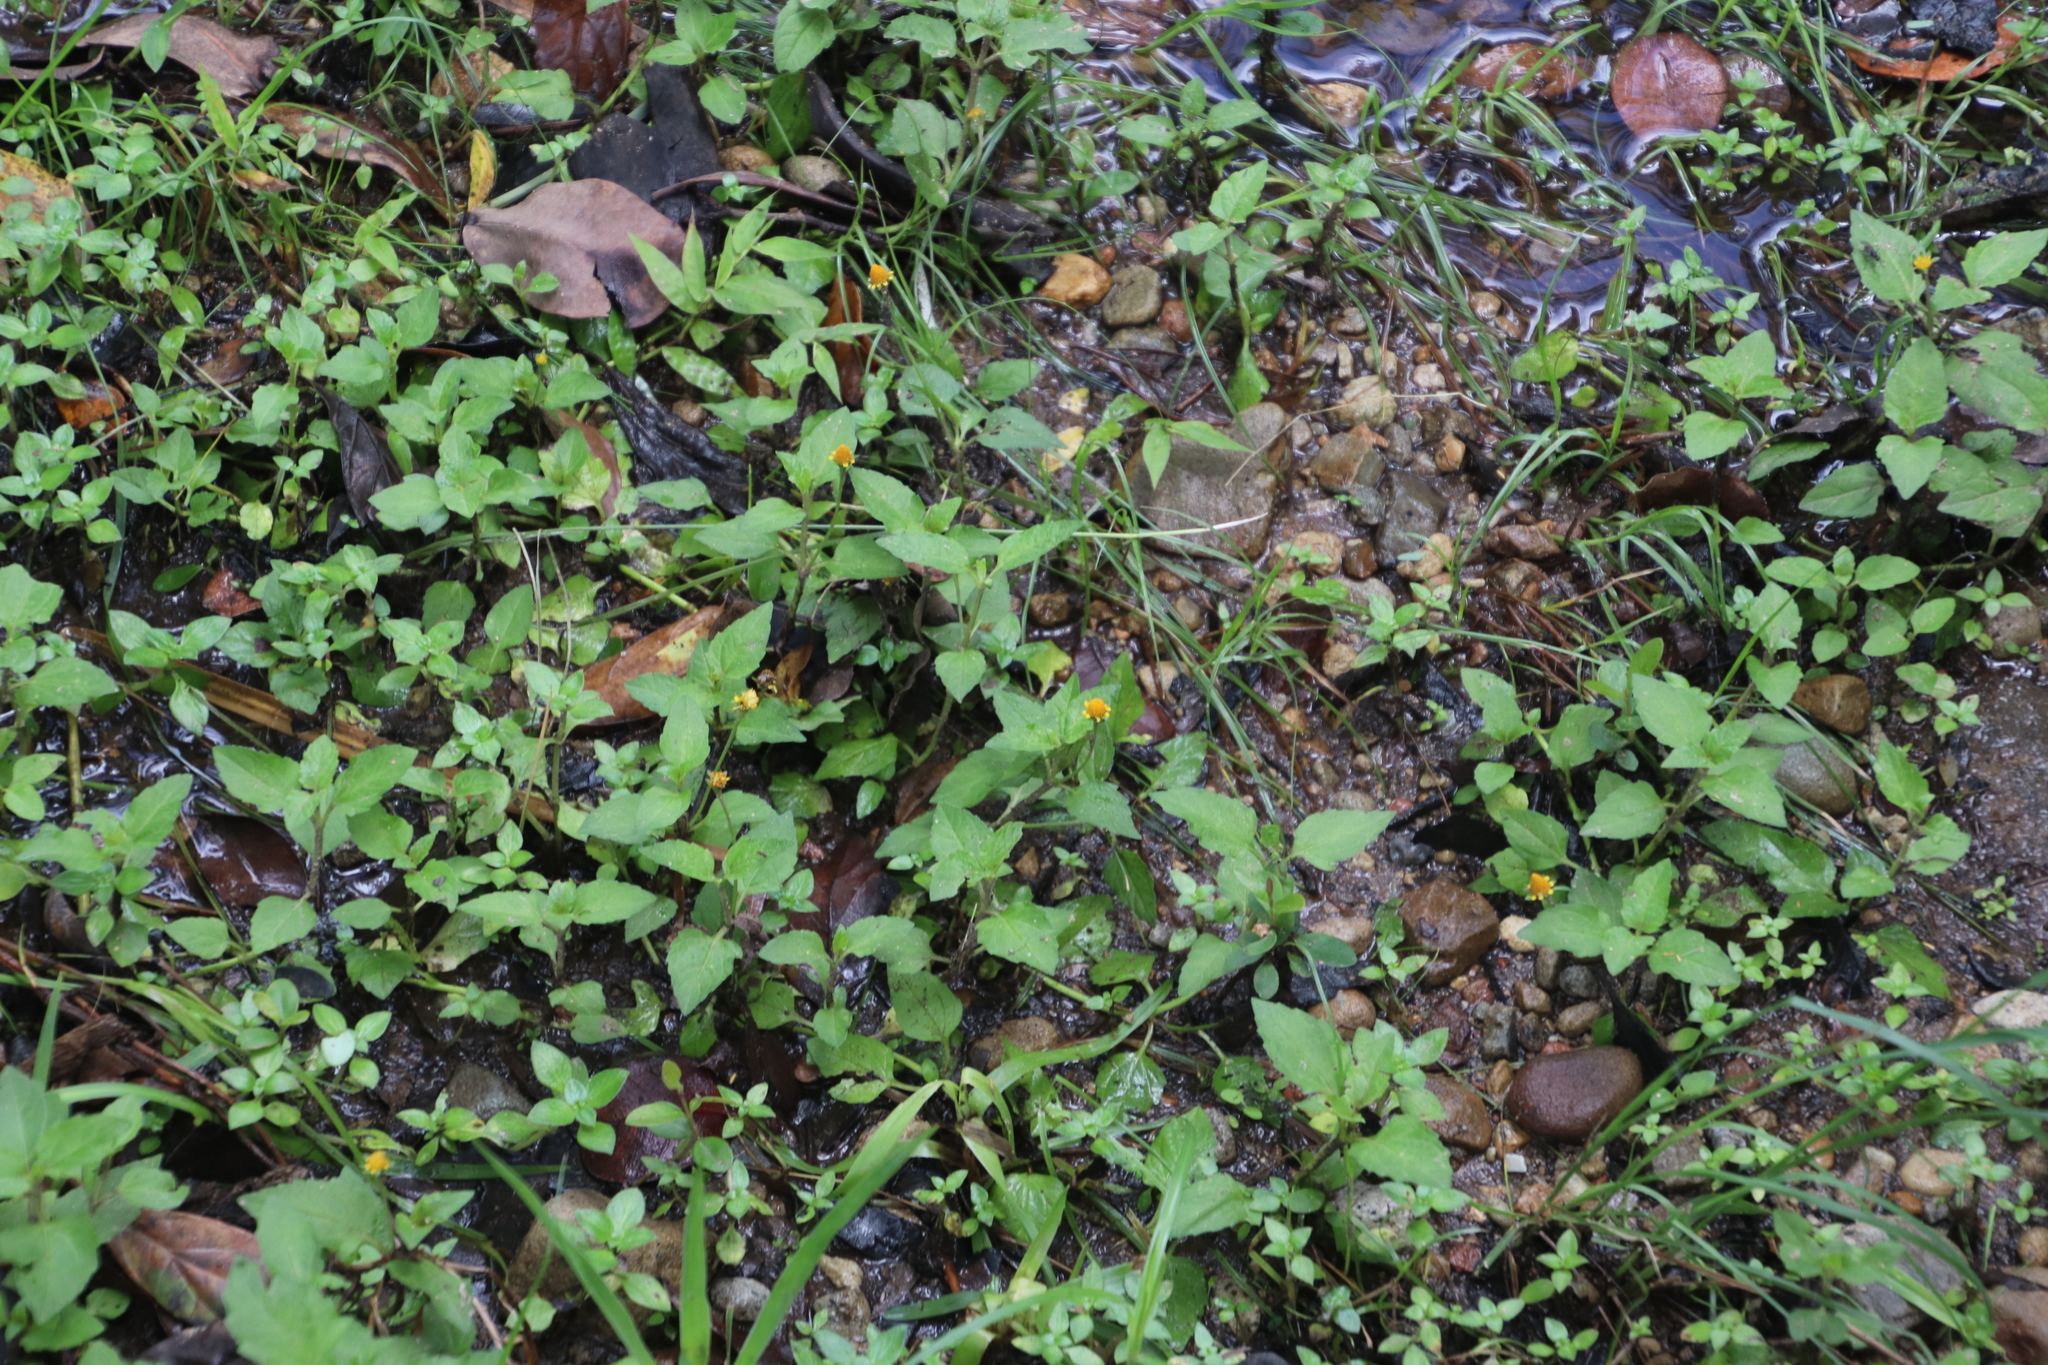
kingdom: Plantae
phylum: Tracheophyta
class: Magnoliopsida
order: Asterales
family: Asteraceae
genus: Acmella
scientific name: Acmella caulirhiza
